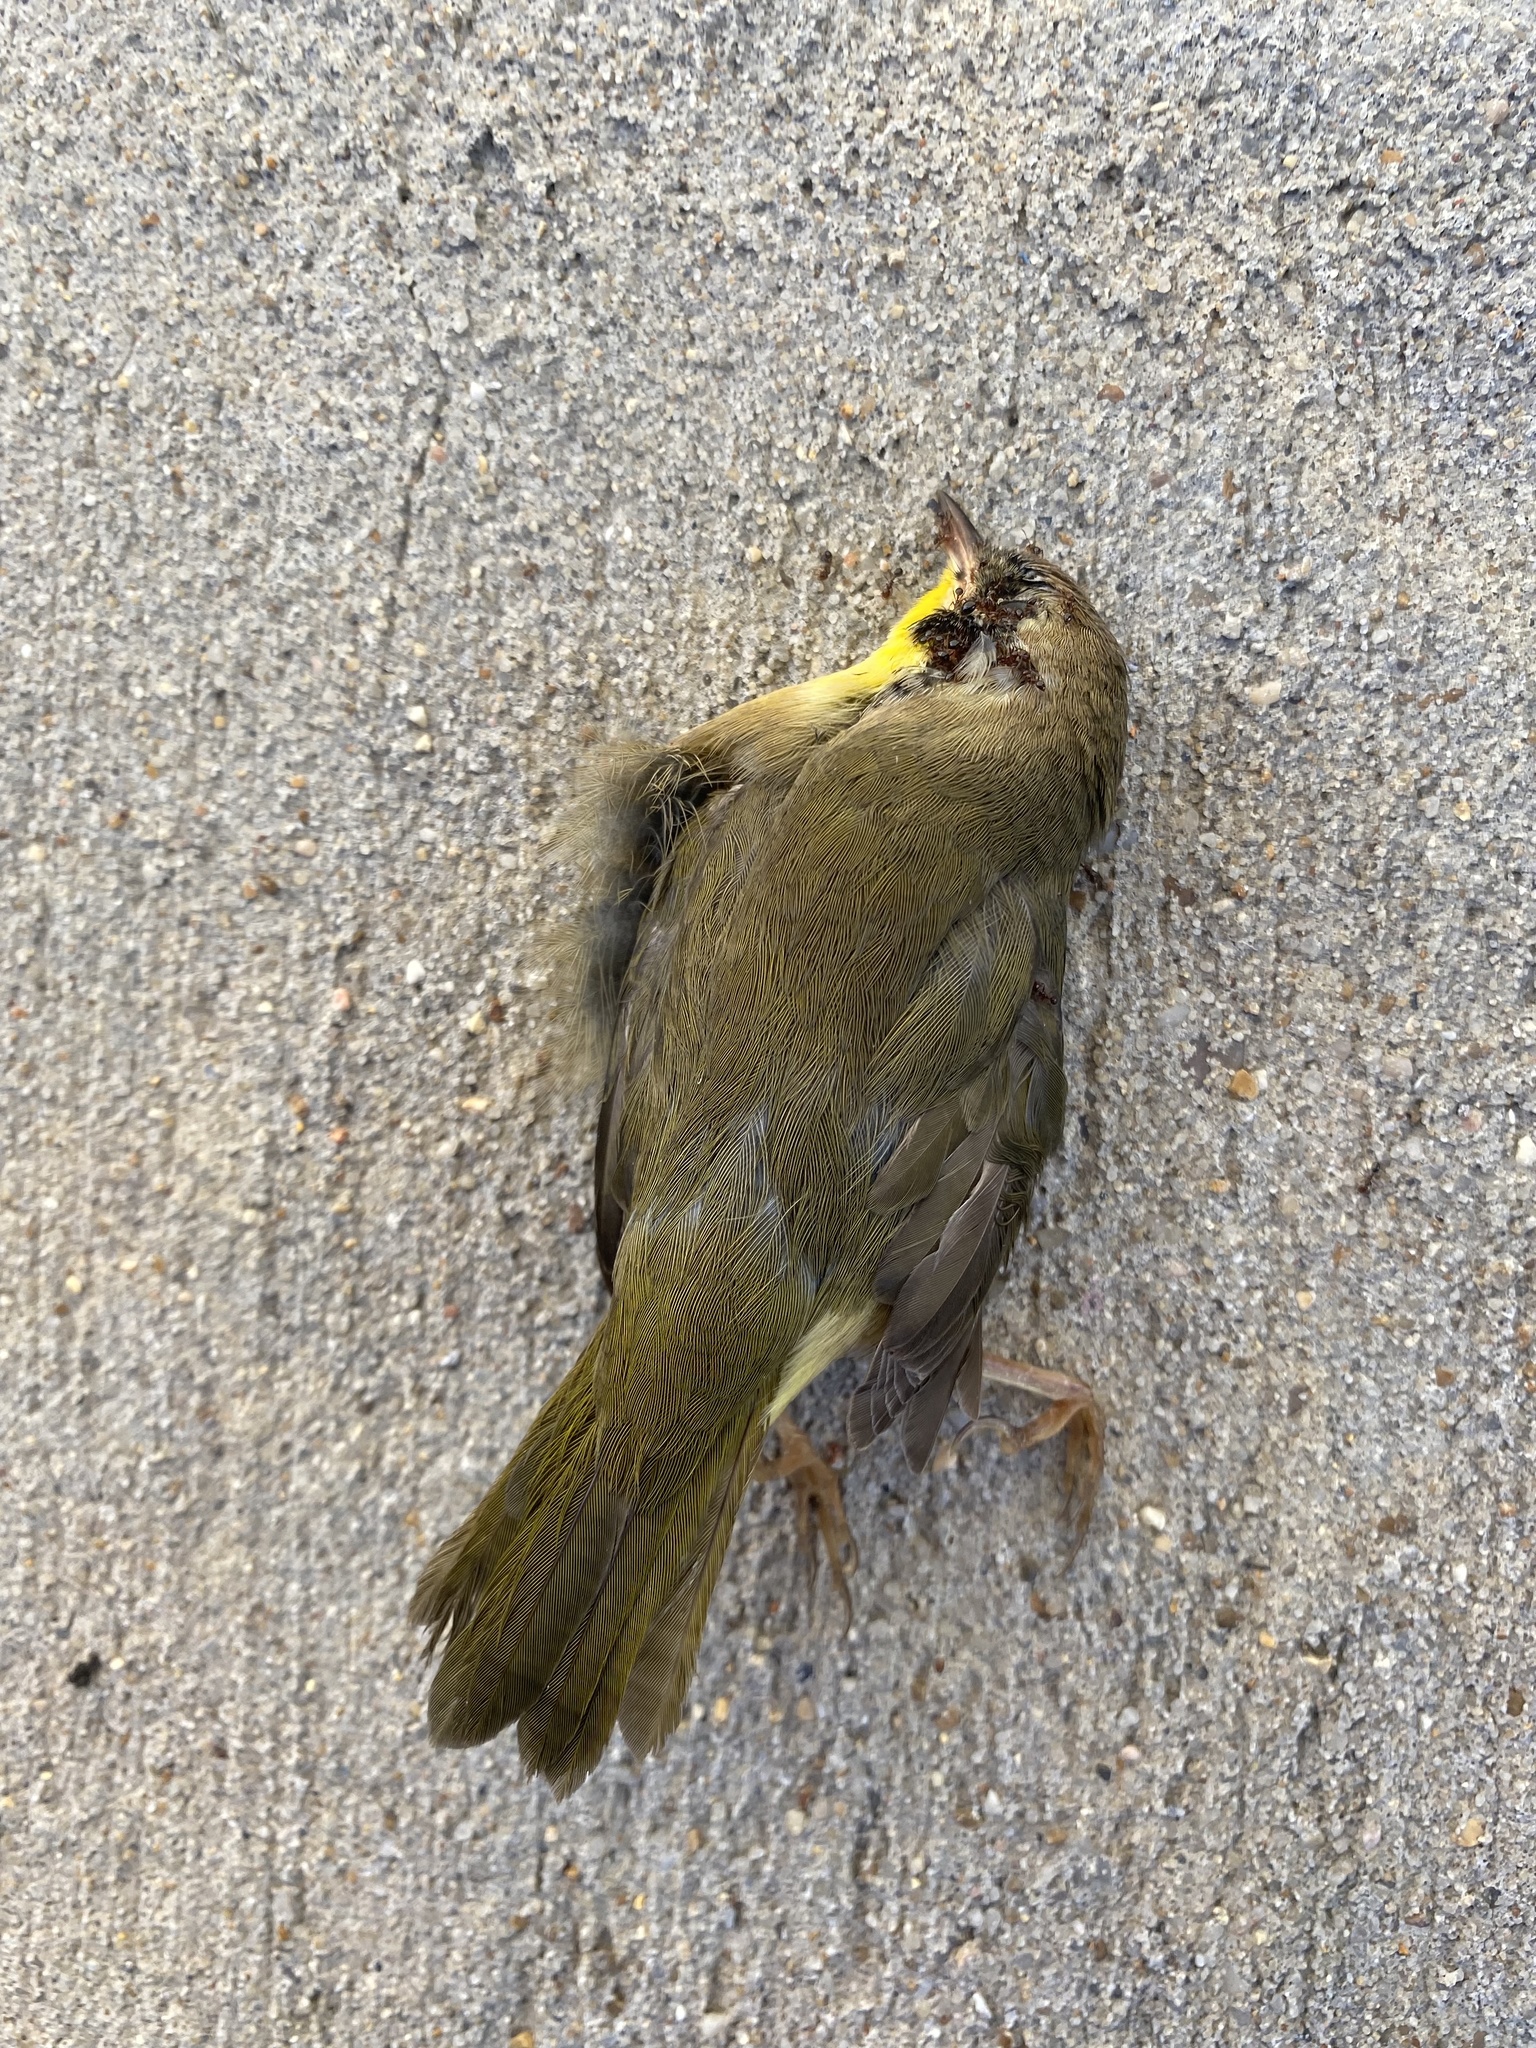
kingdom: Animalia
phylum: Chordata
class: Aves
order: Passeriformes
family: Parulidae
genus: Geothlypis
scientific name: Geothlypis trichas
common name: Common yellowthroat
